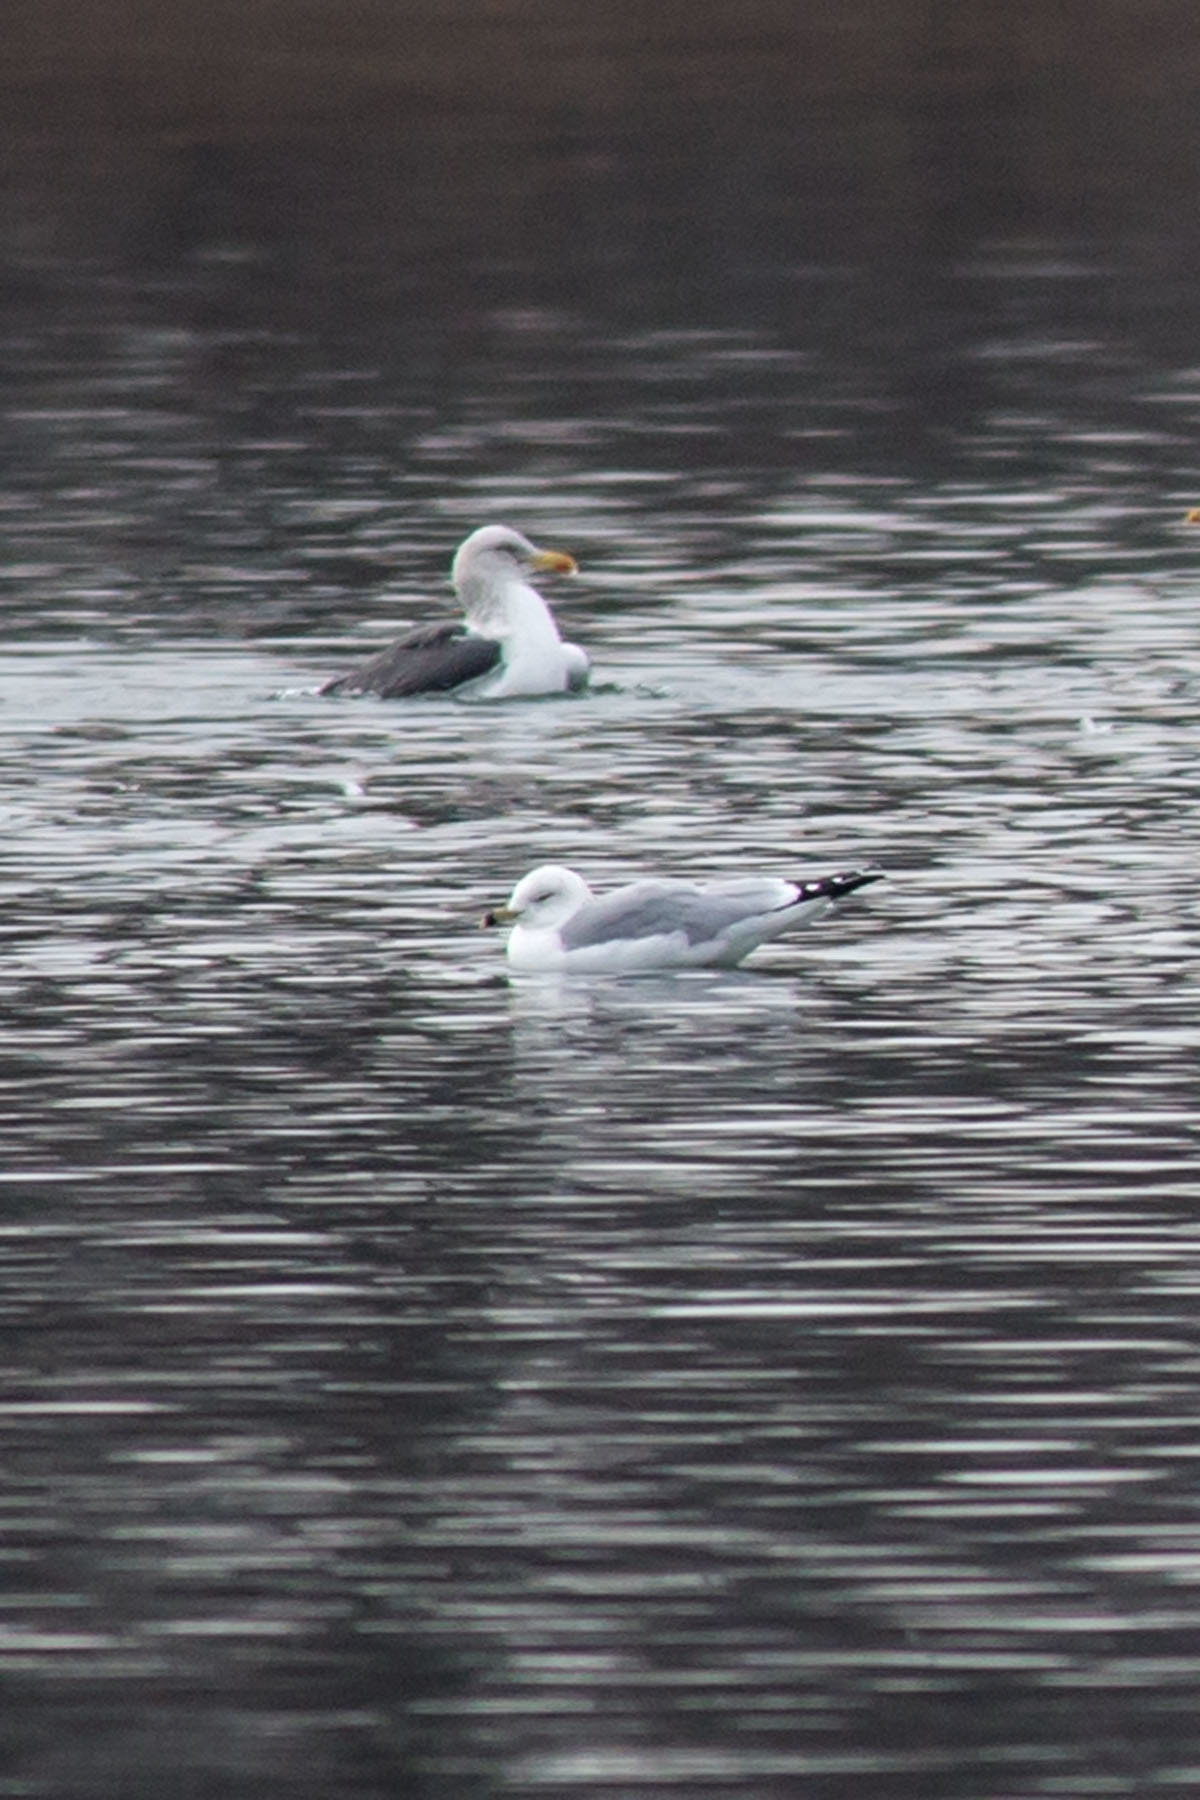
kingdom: Animalia
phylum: Chordata
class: Aves
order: Charadriiformes
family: Laridae
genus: Larus
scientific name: Larus delawarensis
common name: Ring-billed gull
